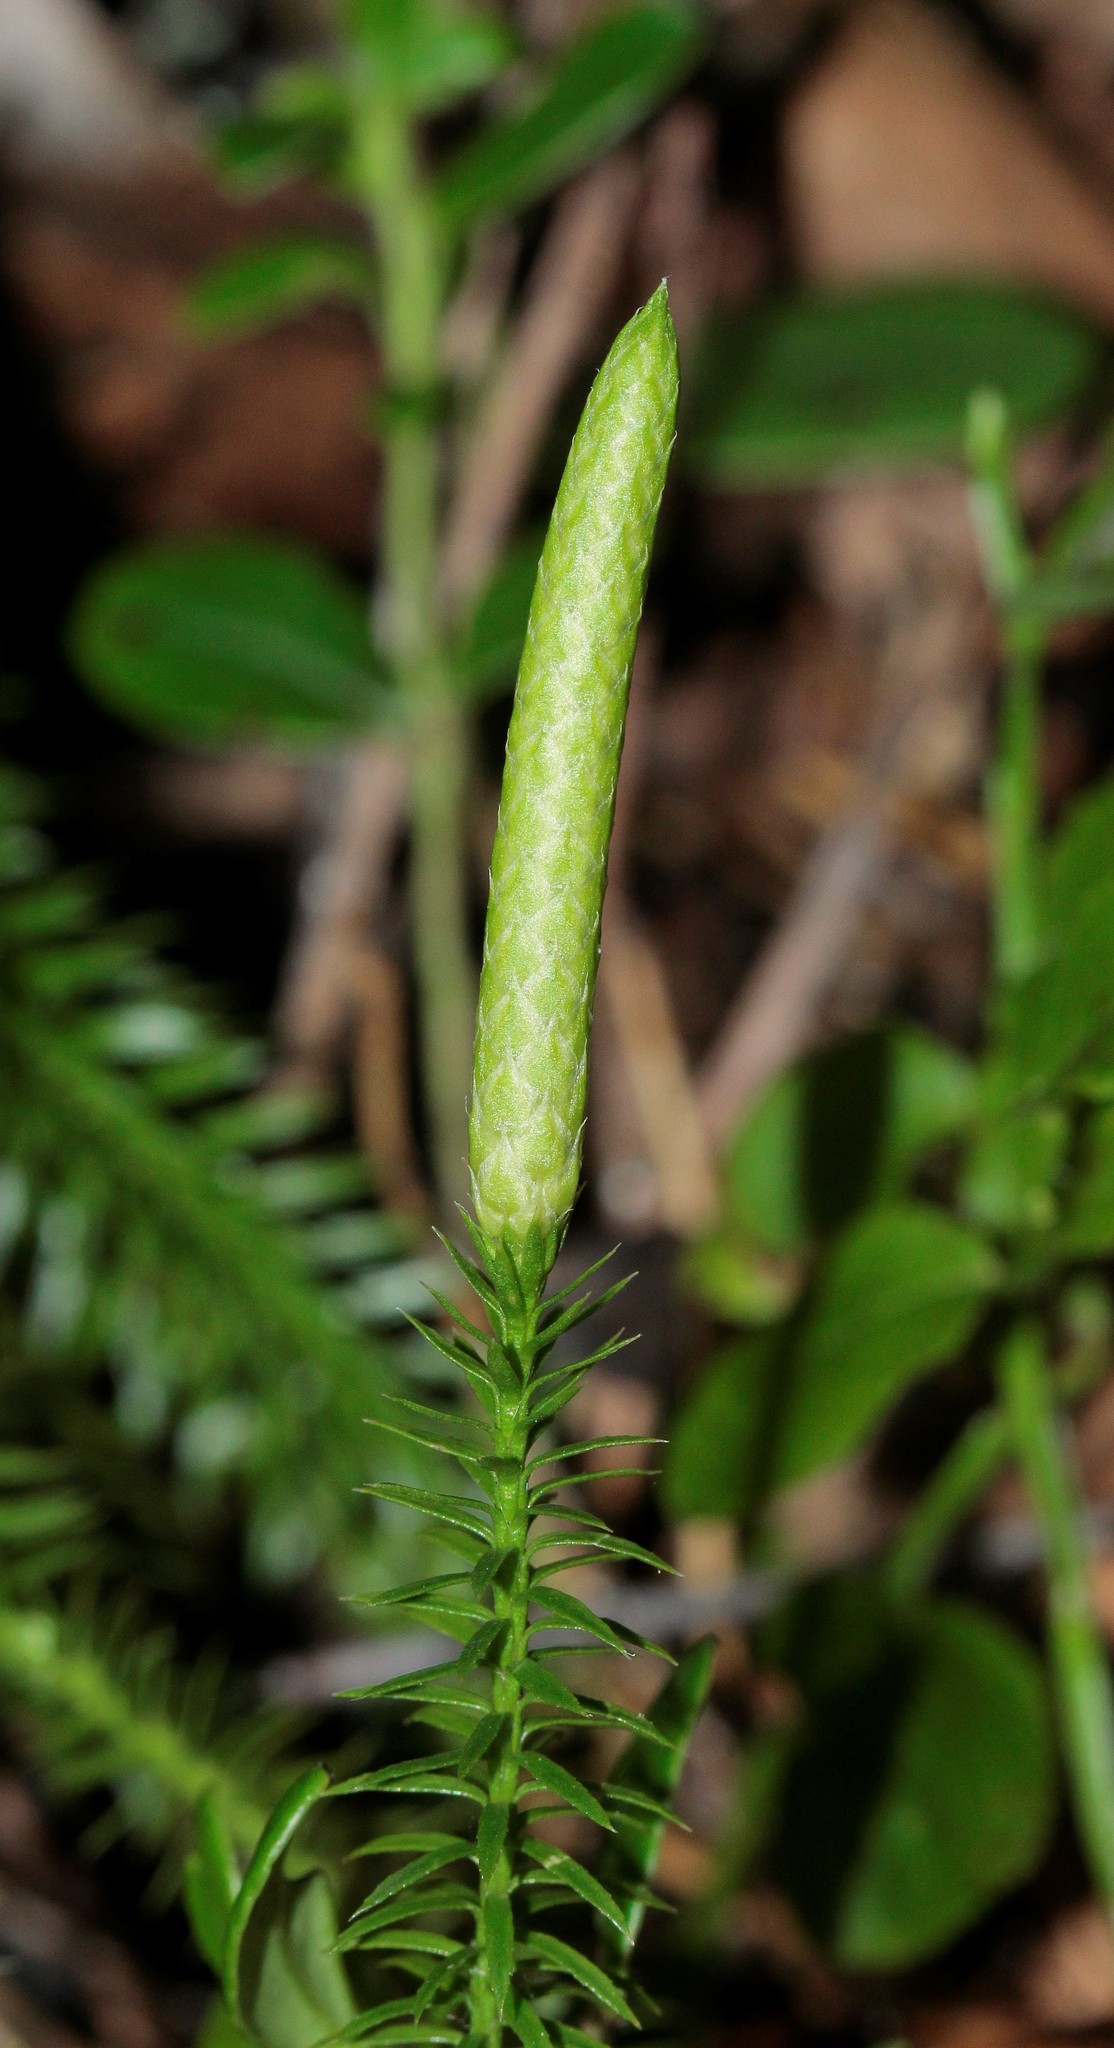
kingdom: Plantae
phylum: Tracheophyta
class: Lycopodiopsida
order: Lycopodiales
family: Lycopodiaceae
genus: Spinulum
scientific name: Spinulum annotinum
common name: Interrupted club-moss
